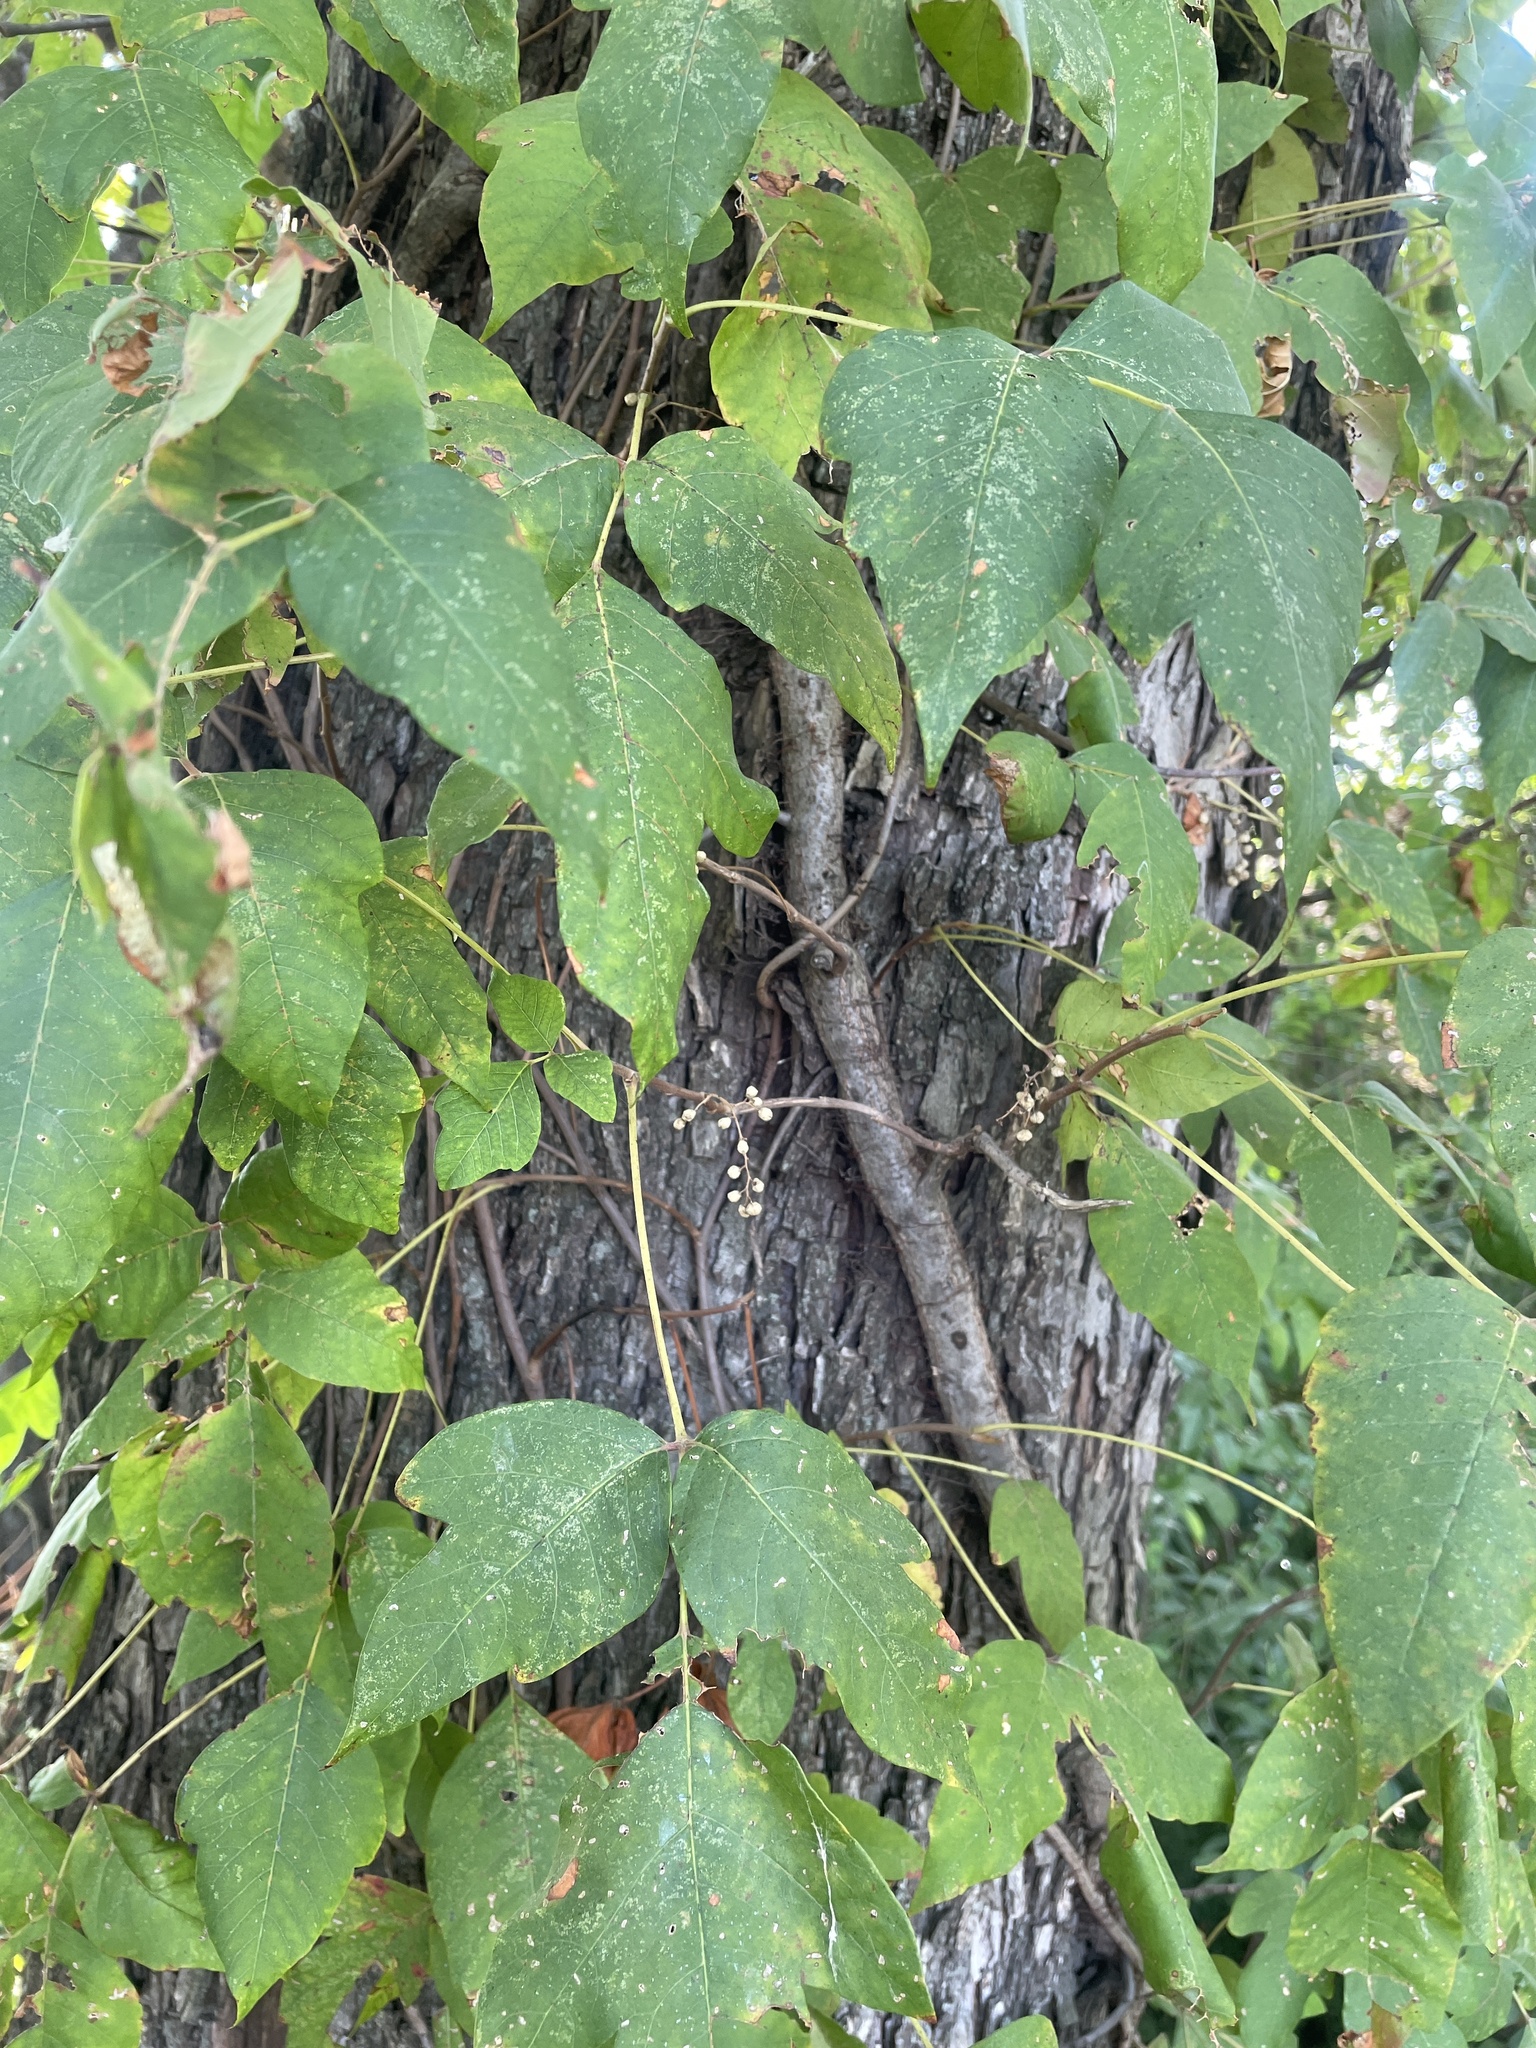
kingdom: Plantae
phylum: Tracheophyta
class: Magnoliopsida
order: Sapindales
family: Anacardiaceae
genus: Toxicodendron
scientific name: Toxicodendron radicans
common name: Poison ivy
